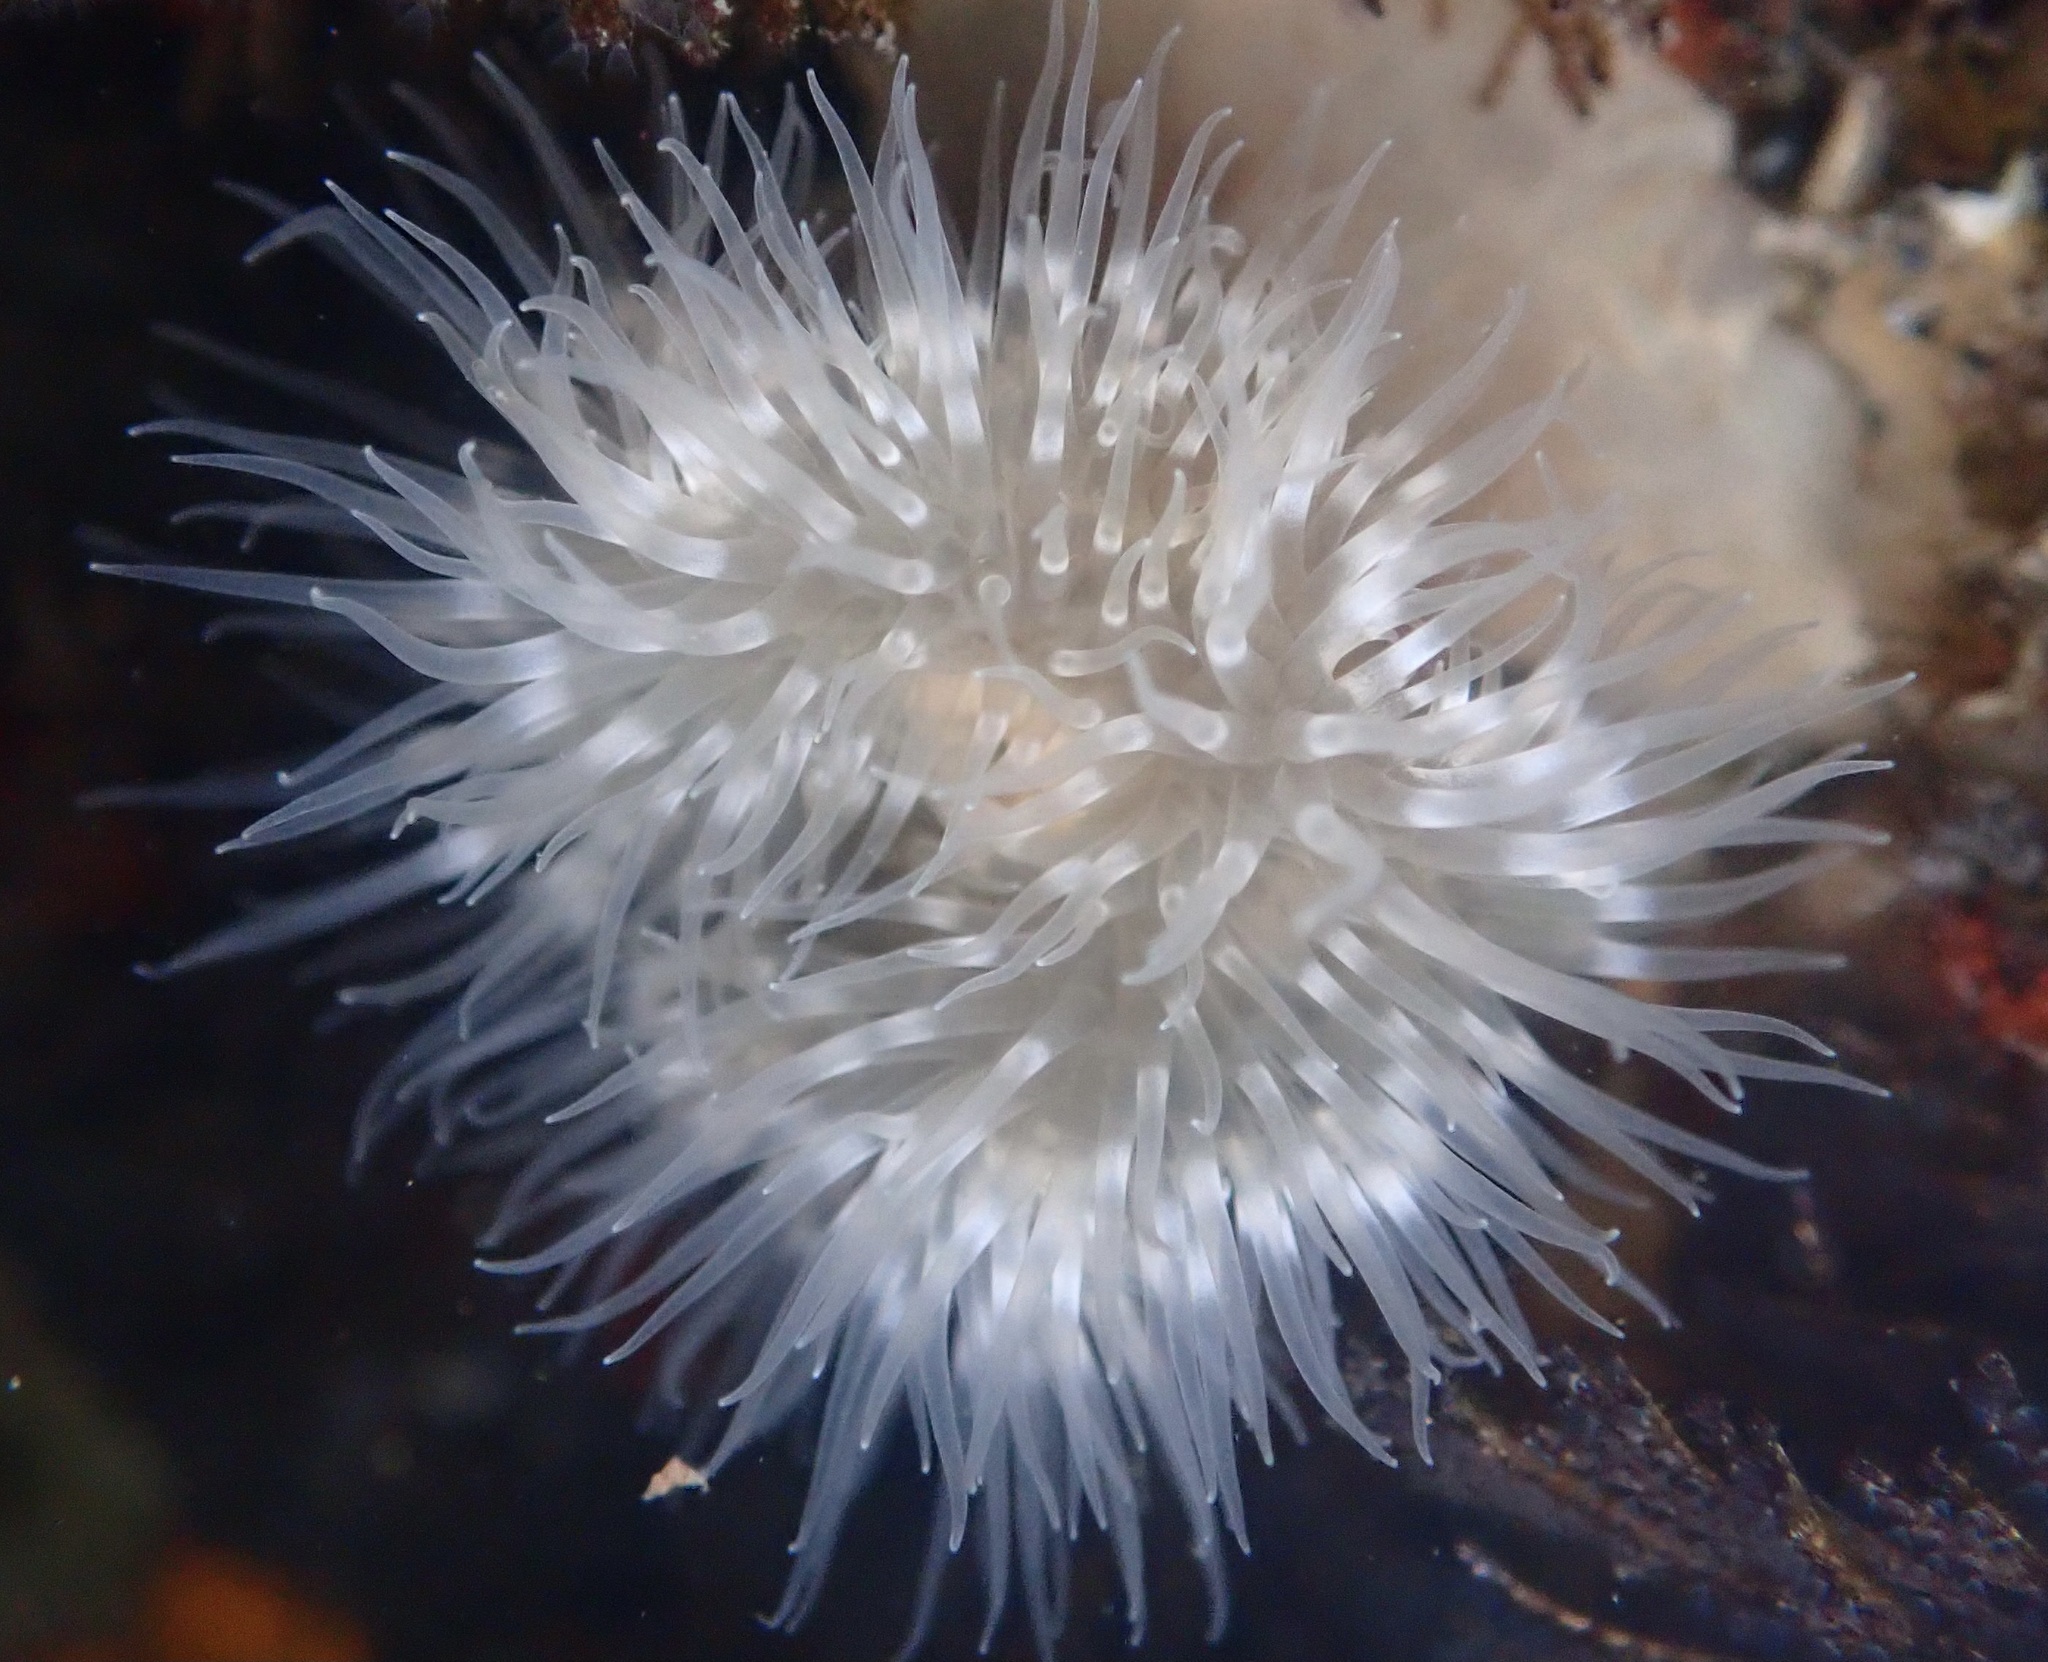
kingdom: Animalia
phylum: Cnidaria
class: Anthozoa
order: Actiniaria
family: Metridiidae
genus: Metridium
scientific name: Metridium senile
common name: Clonal plumose anemone
